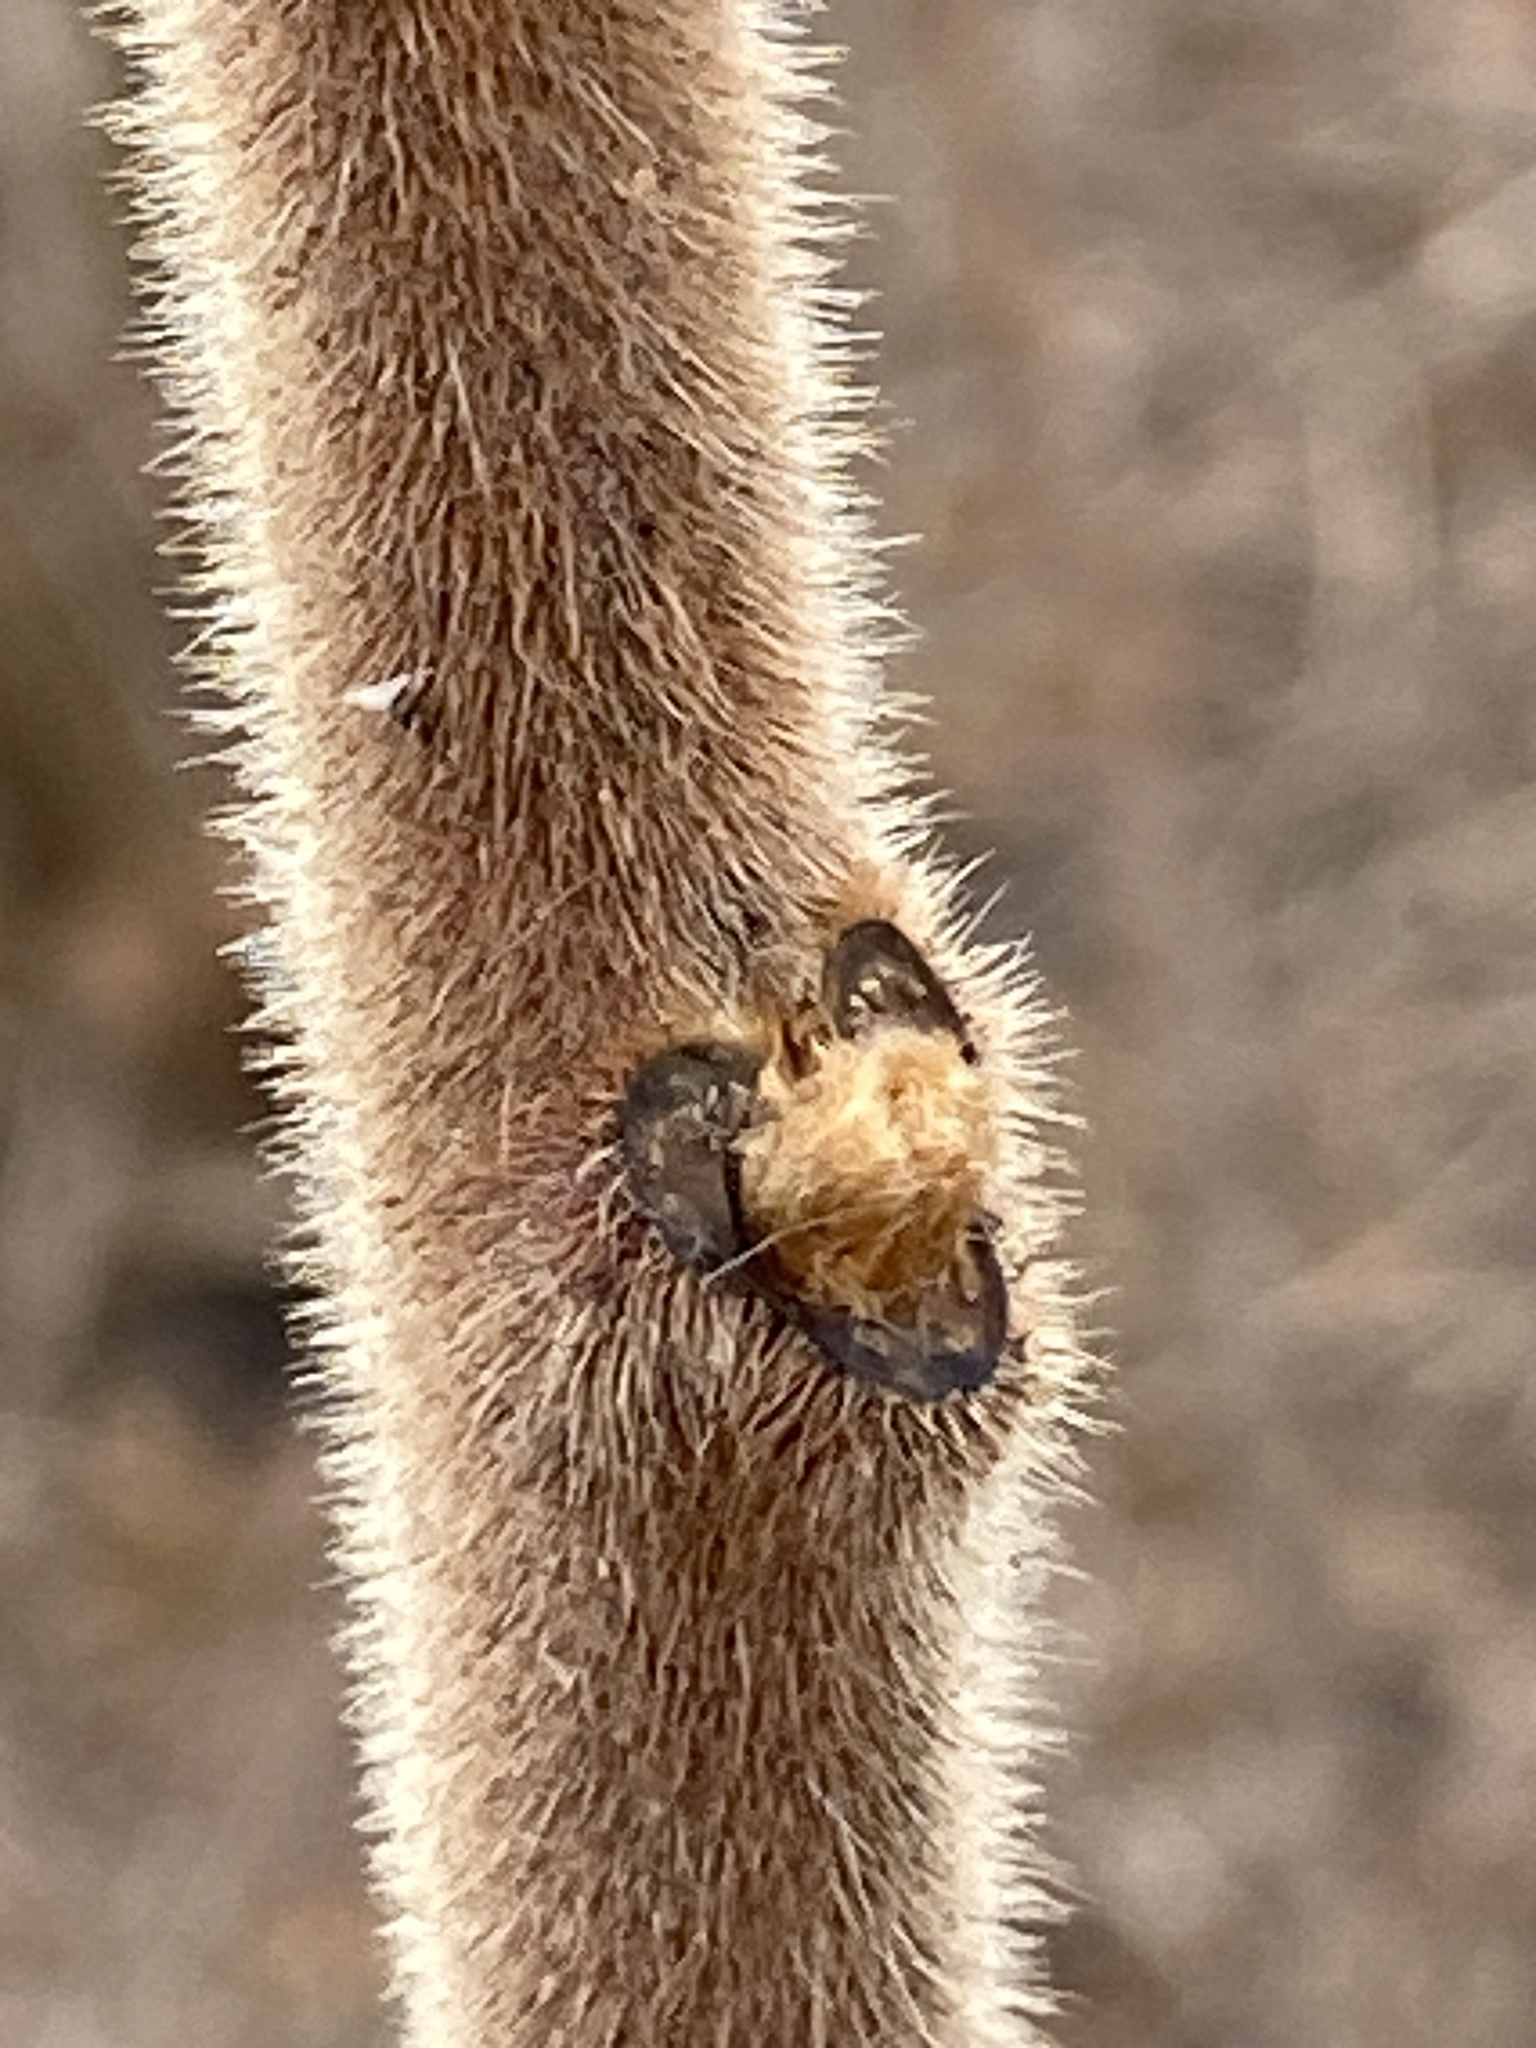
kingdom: Plantae
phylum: Tracheophyta
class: Magnoliopsida
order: Sapindales
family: Anacardiaceae
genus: Rhus
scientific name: Rhus typhina
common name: Staghorn sumac
